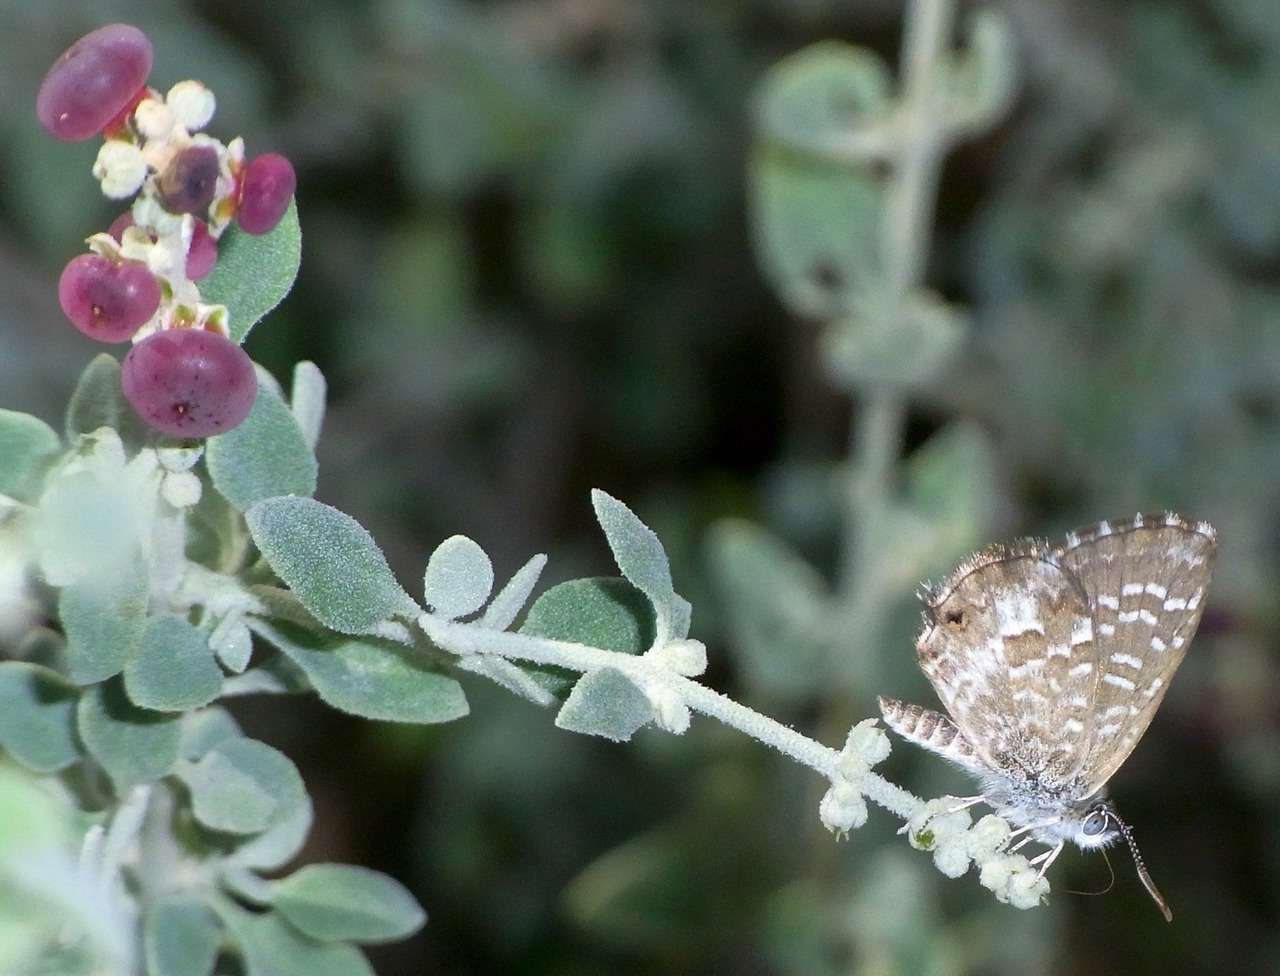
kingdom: Plantae
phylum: Tracheophyta
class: Magnoliopsida
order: Caryophyllales
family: Amaranthaceae
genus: Chenopodium
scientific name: Chenopodium spinescens
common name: Berry-saltbush
